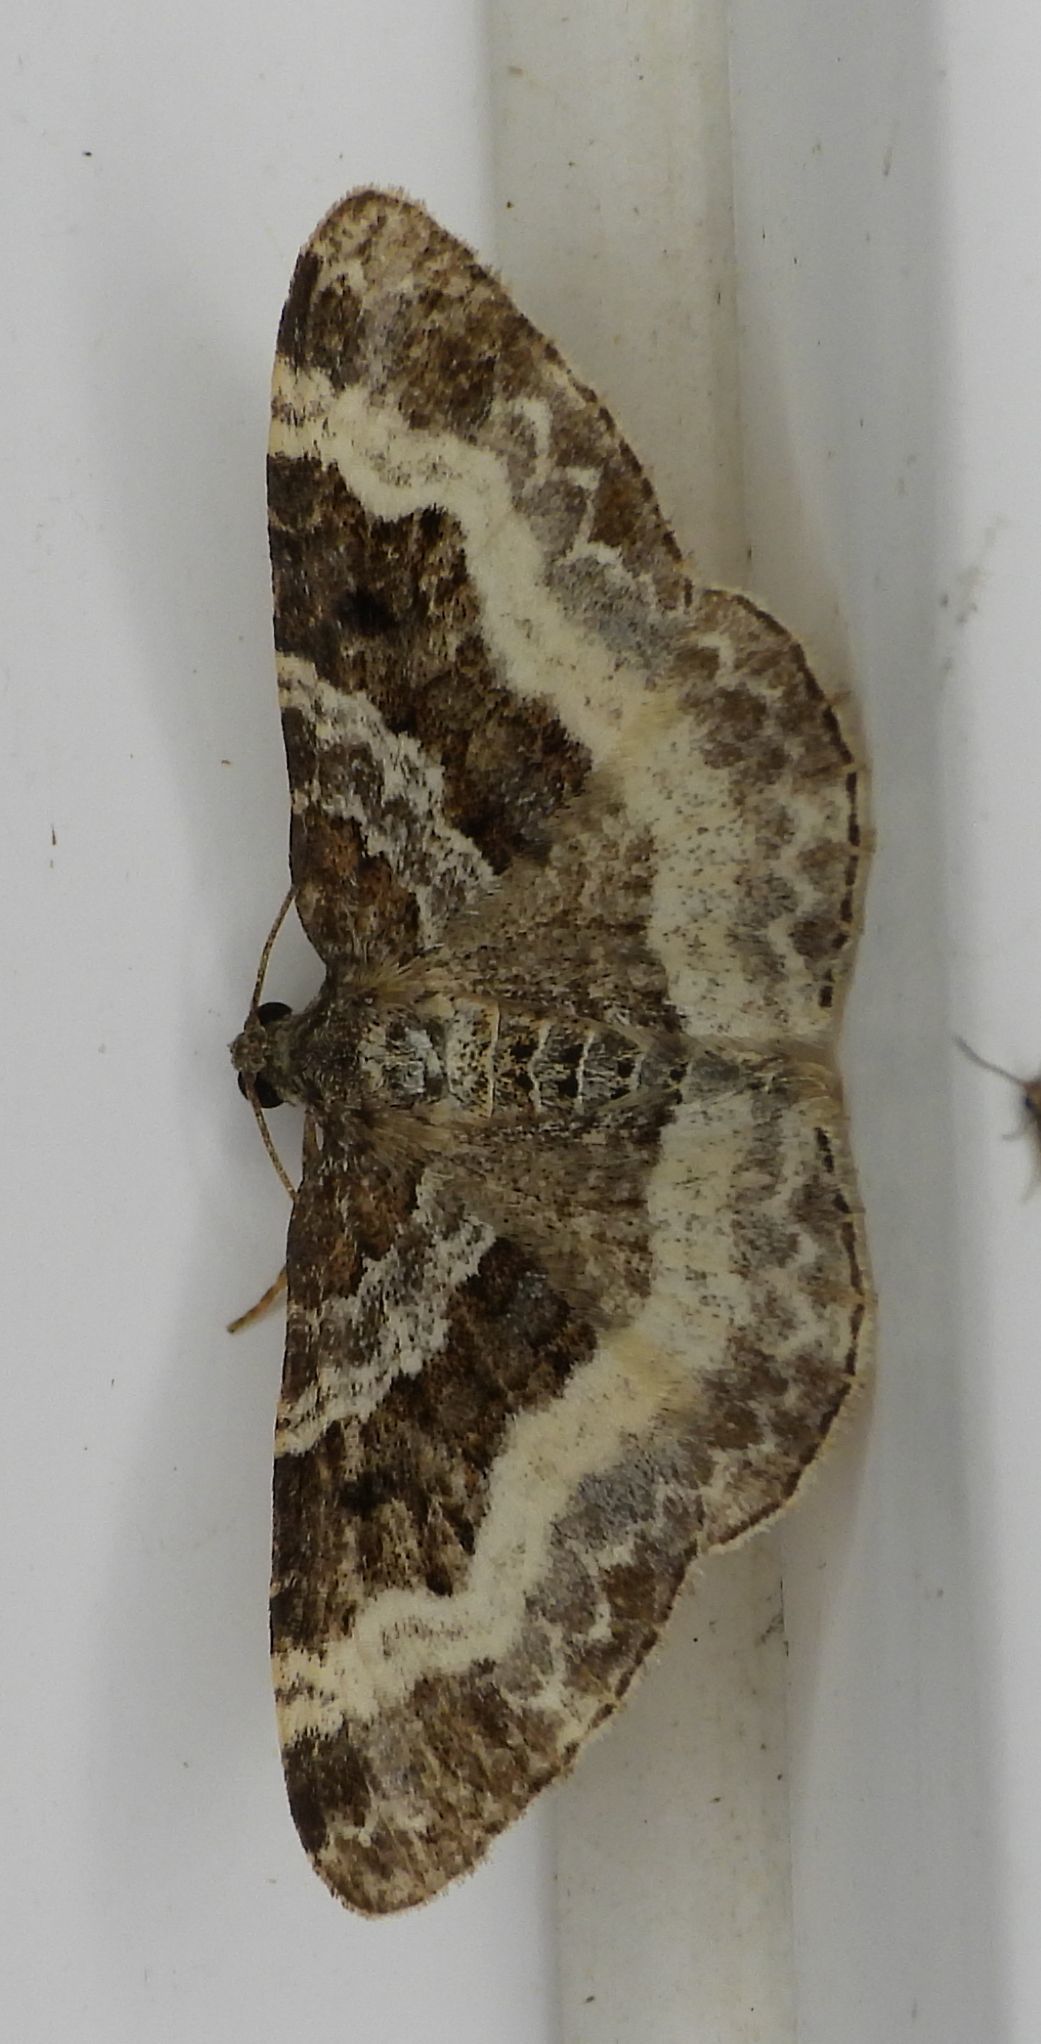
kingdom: Animalia
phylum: Arthropoda
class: Insecta
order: Lepidoptera
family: Geometridae
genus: Epirrhoe
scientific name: Epirrhoe alternata
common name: Common carpet
